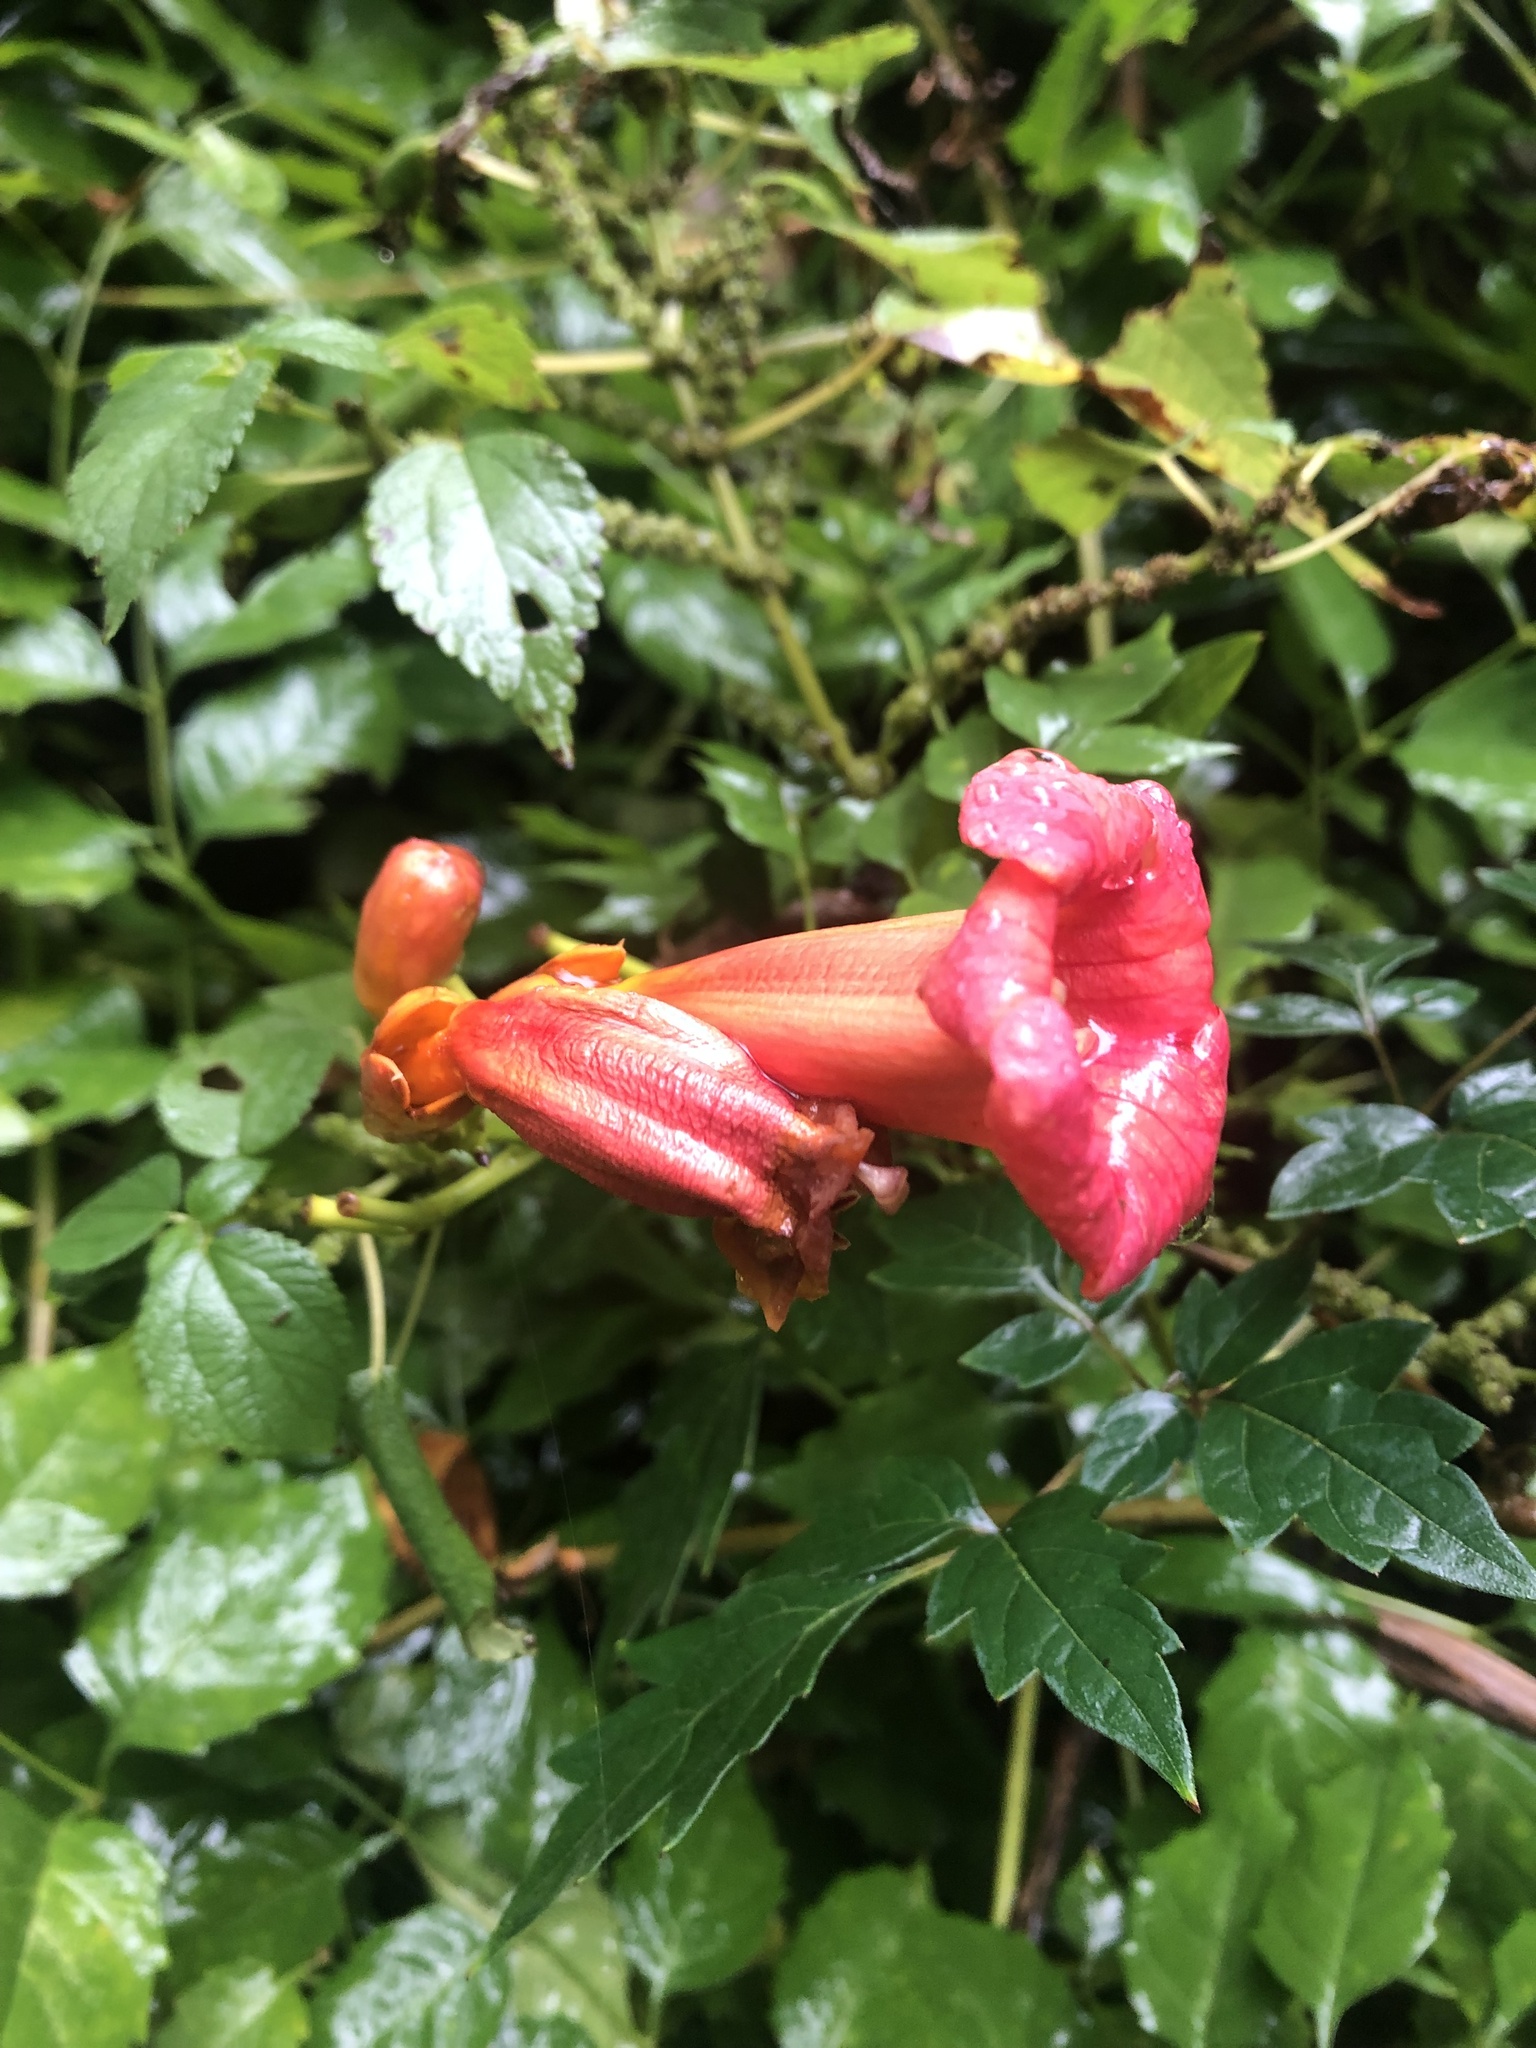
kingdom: Plantae
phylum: Tracheophyta
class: Magnoliopsida
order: Lamiales
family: Bignoniaceae
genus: Campsis
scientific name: Campsis radicans
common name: Trumpet-creeper
